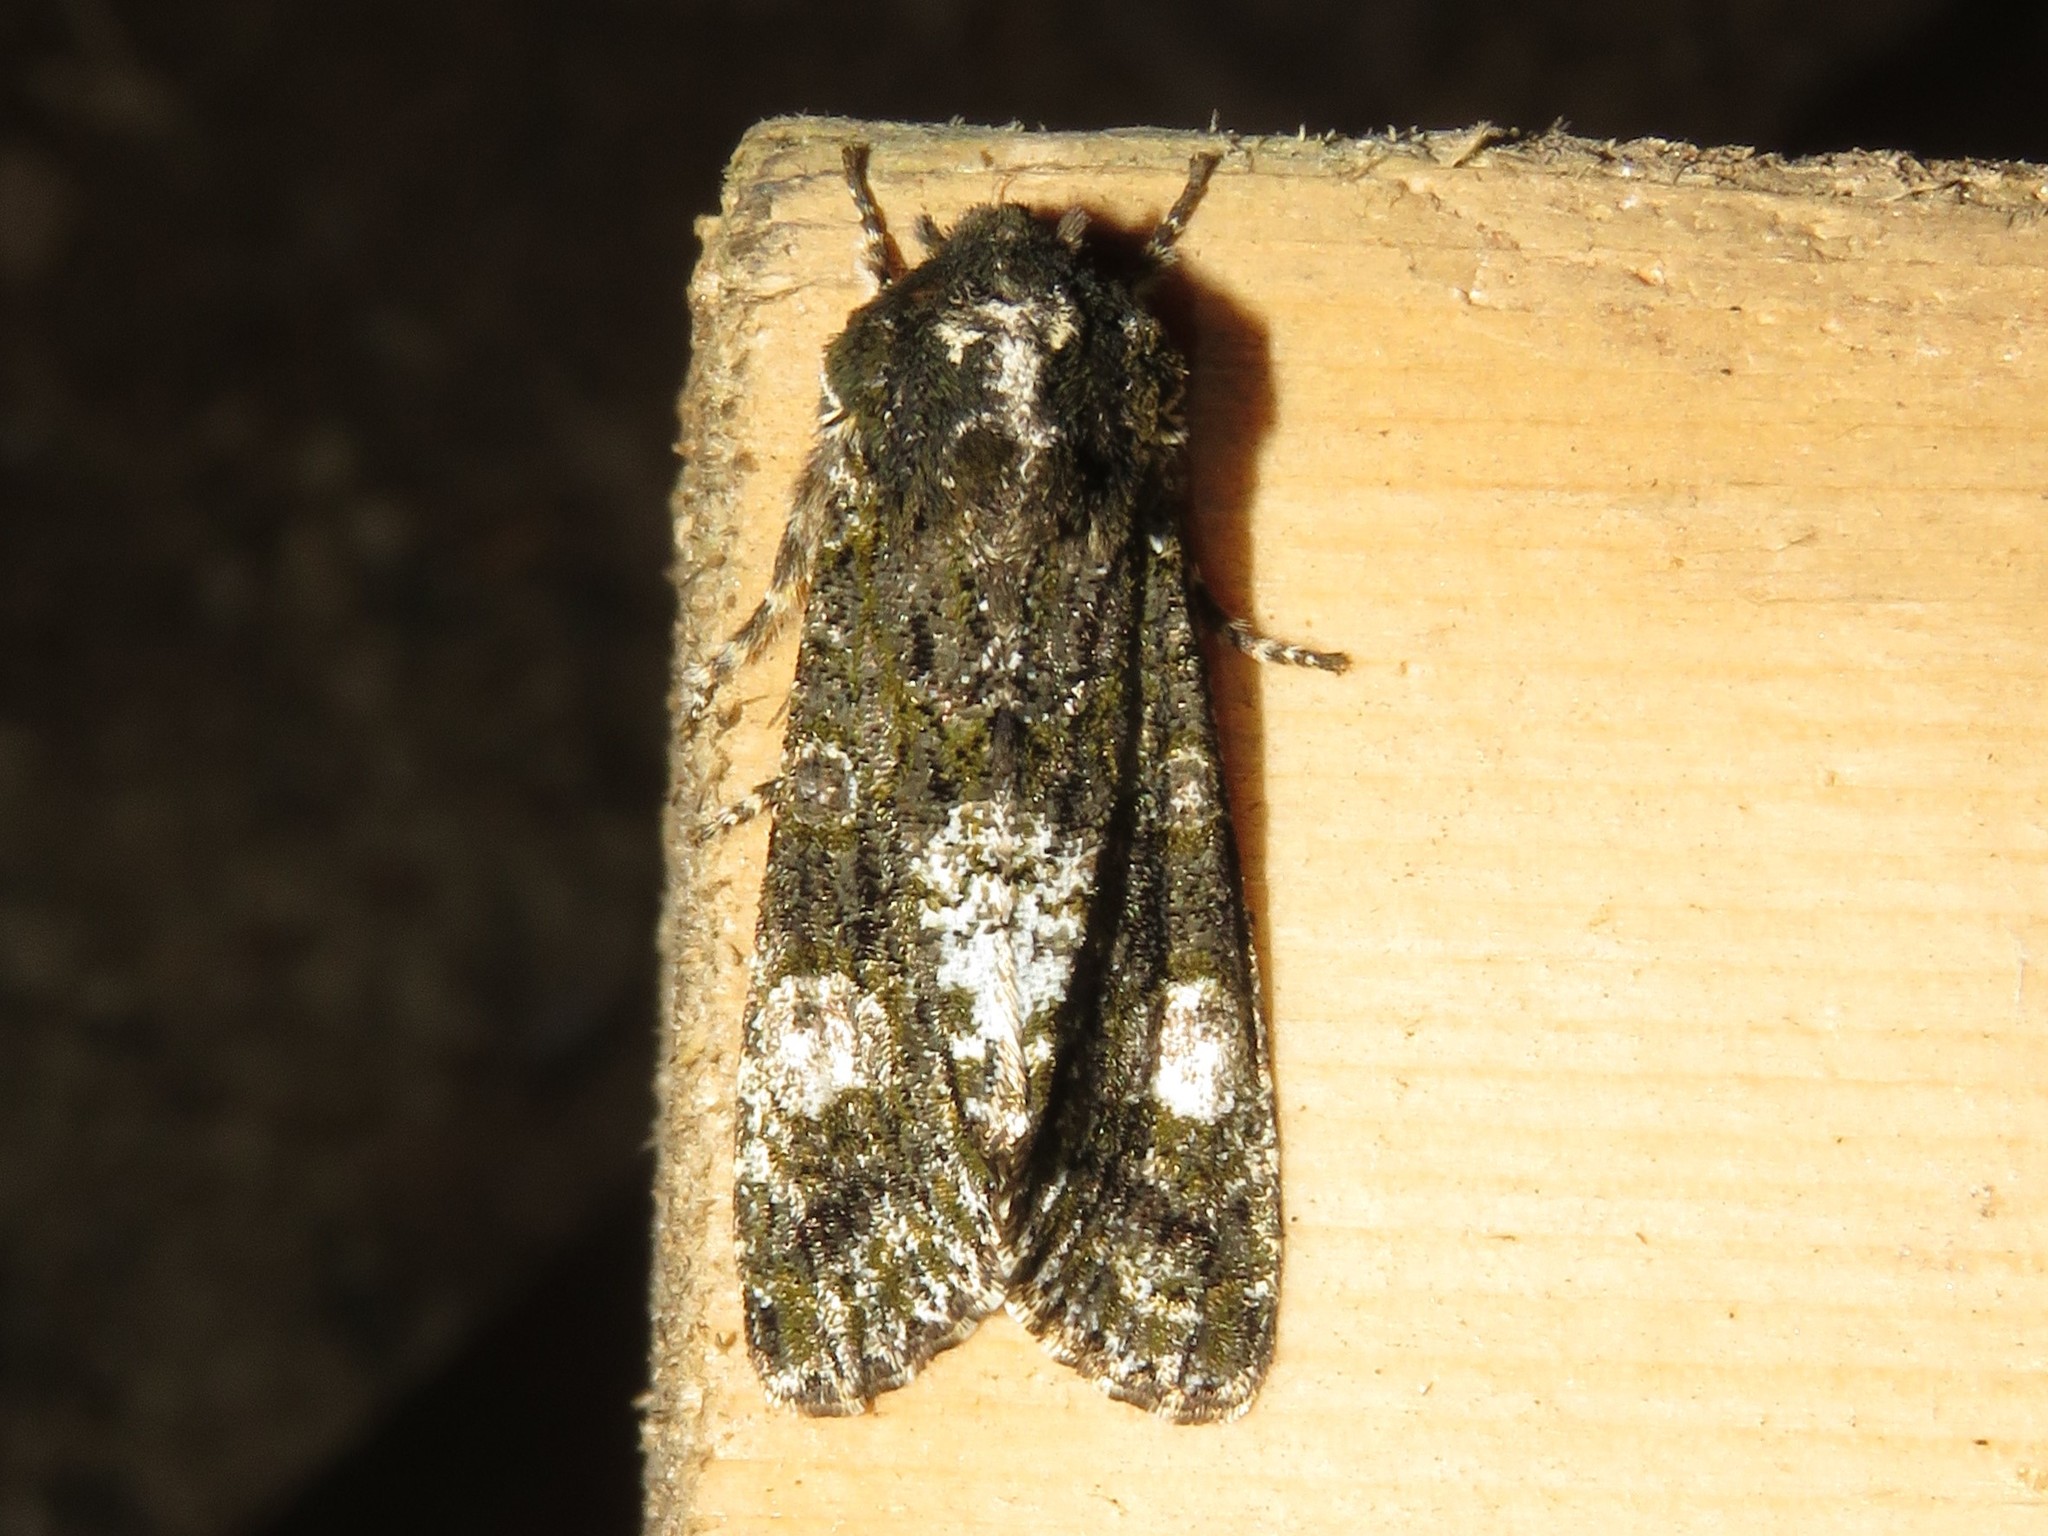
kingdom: Animalia
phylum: Arthropoda
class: Insecta
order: Lepidoptera
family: Noctuidae
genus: Psaphida
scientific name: Psaphida grotei
